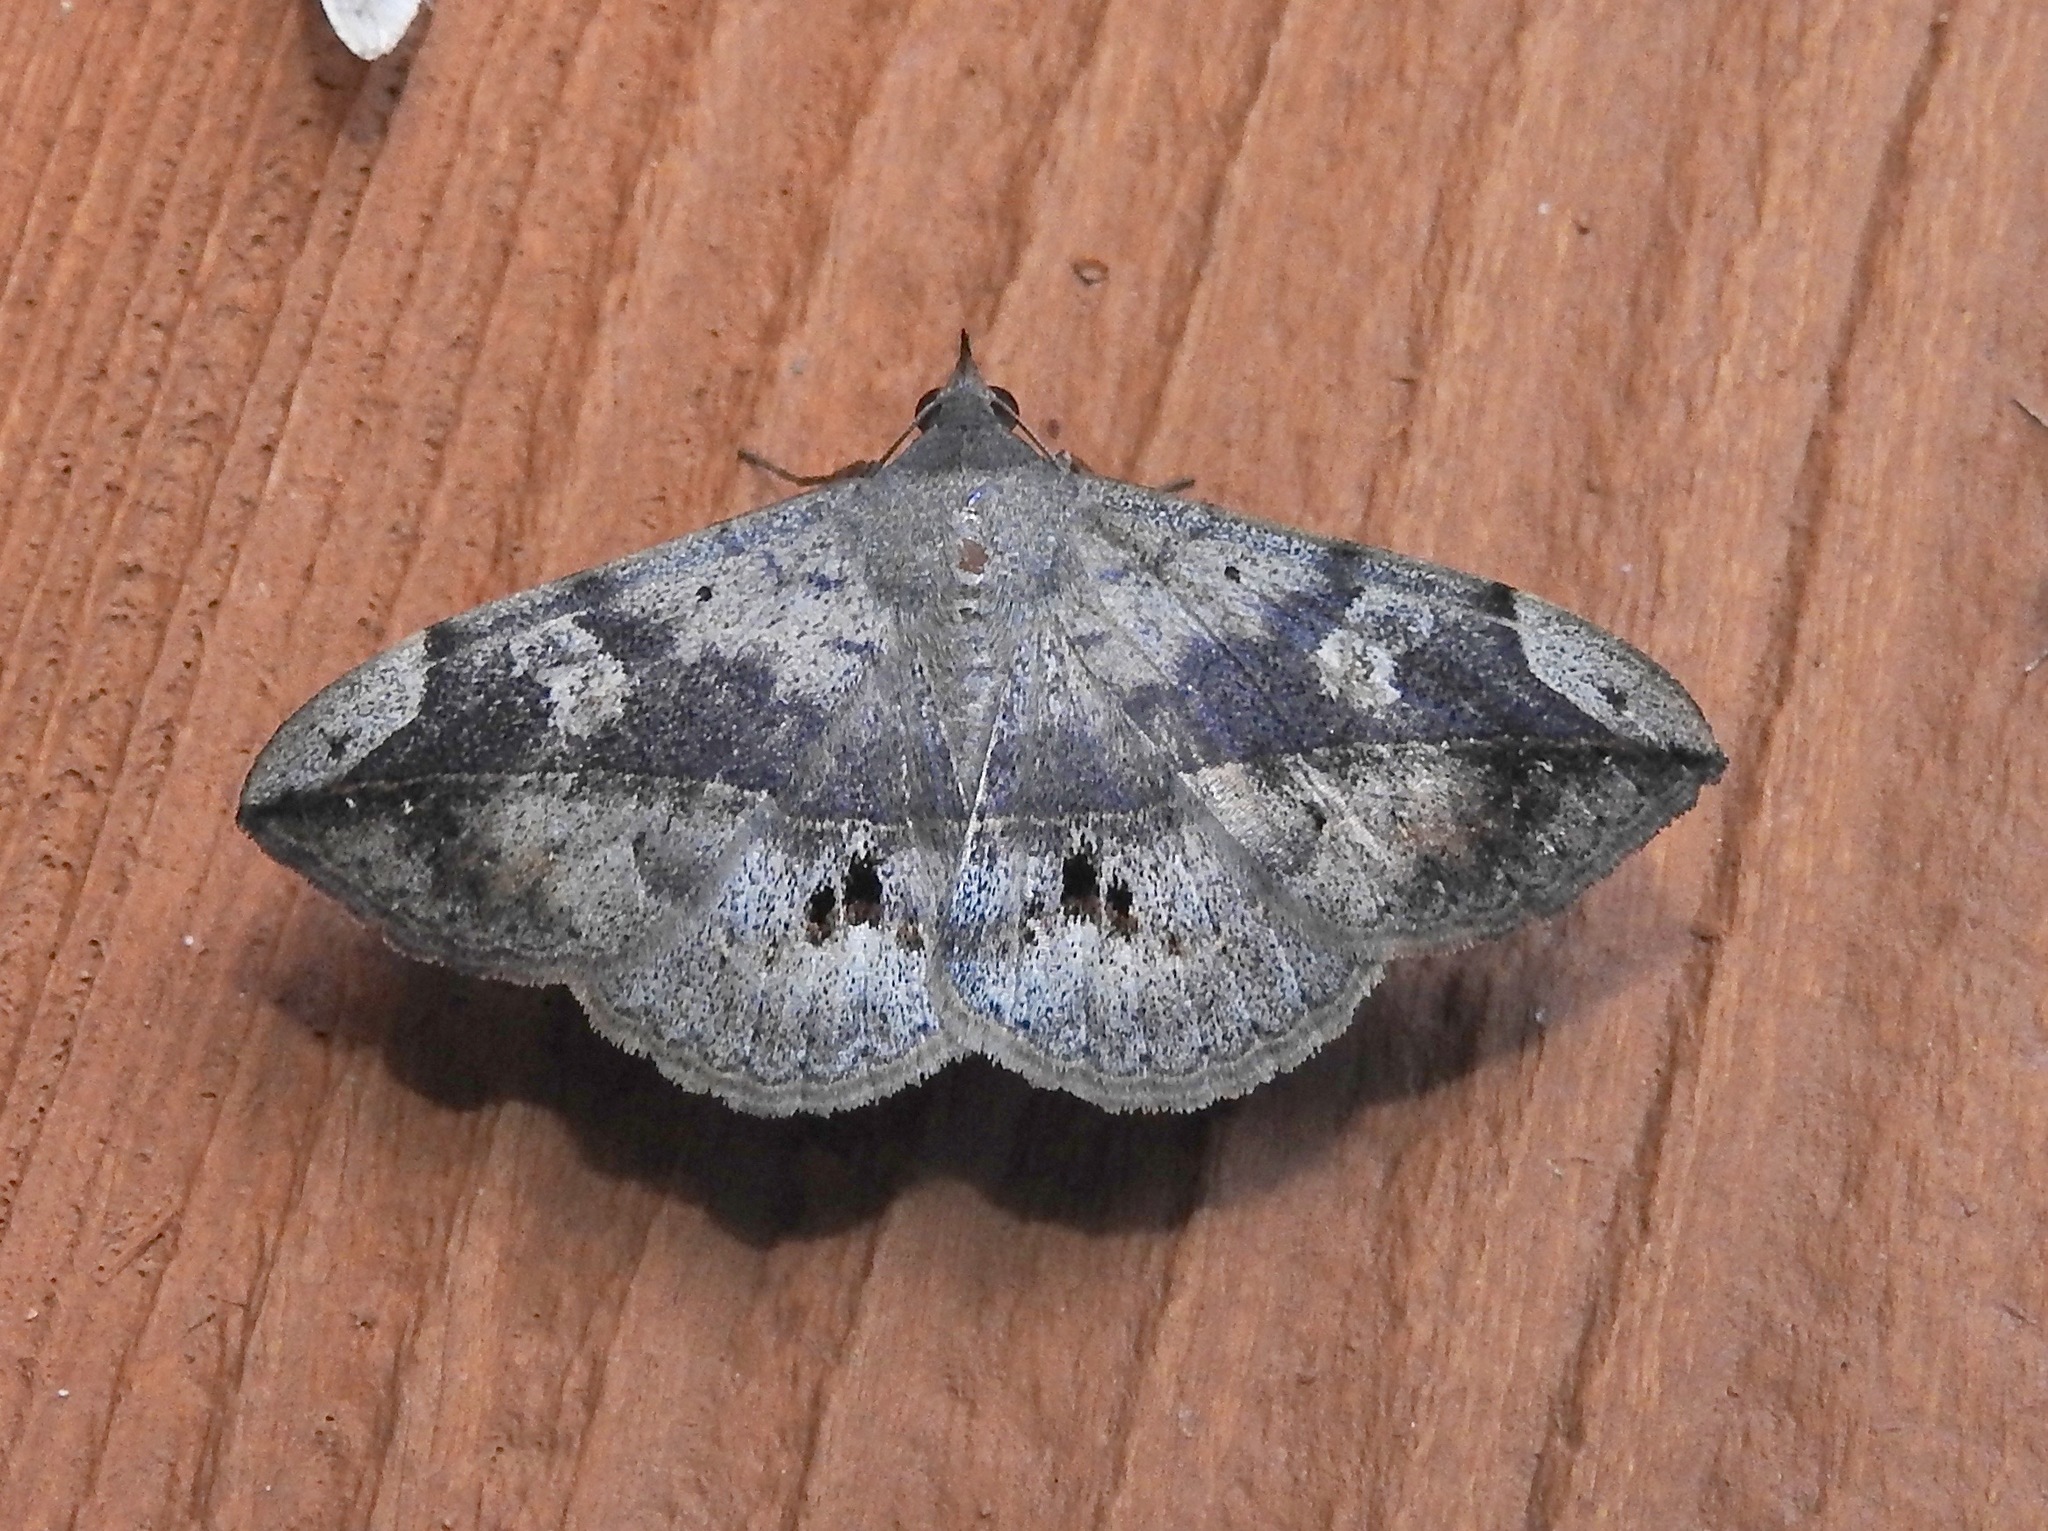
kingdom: Animalia
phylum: Arthropoda
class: Insecta
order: Lepidoptera
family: Erebidae
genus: Anticarsia
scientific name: Anticarsia gemmatalis
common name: Cutworm moth
